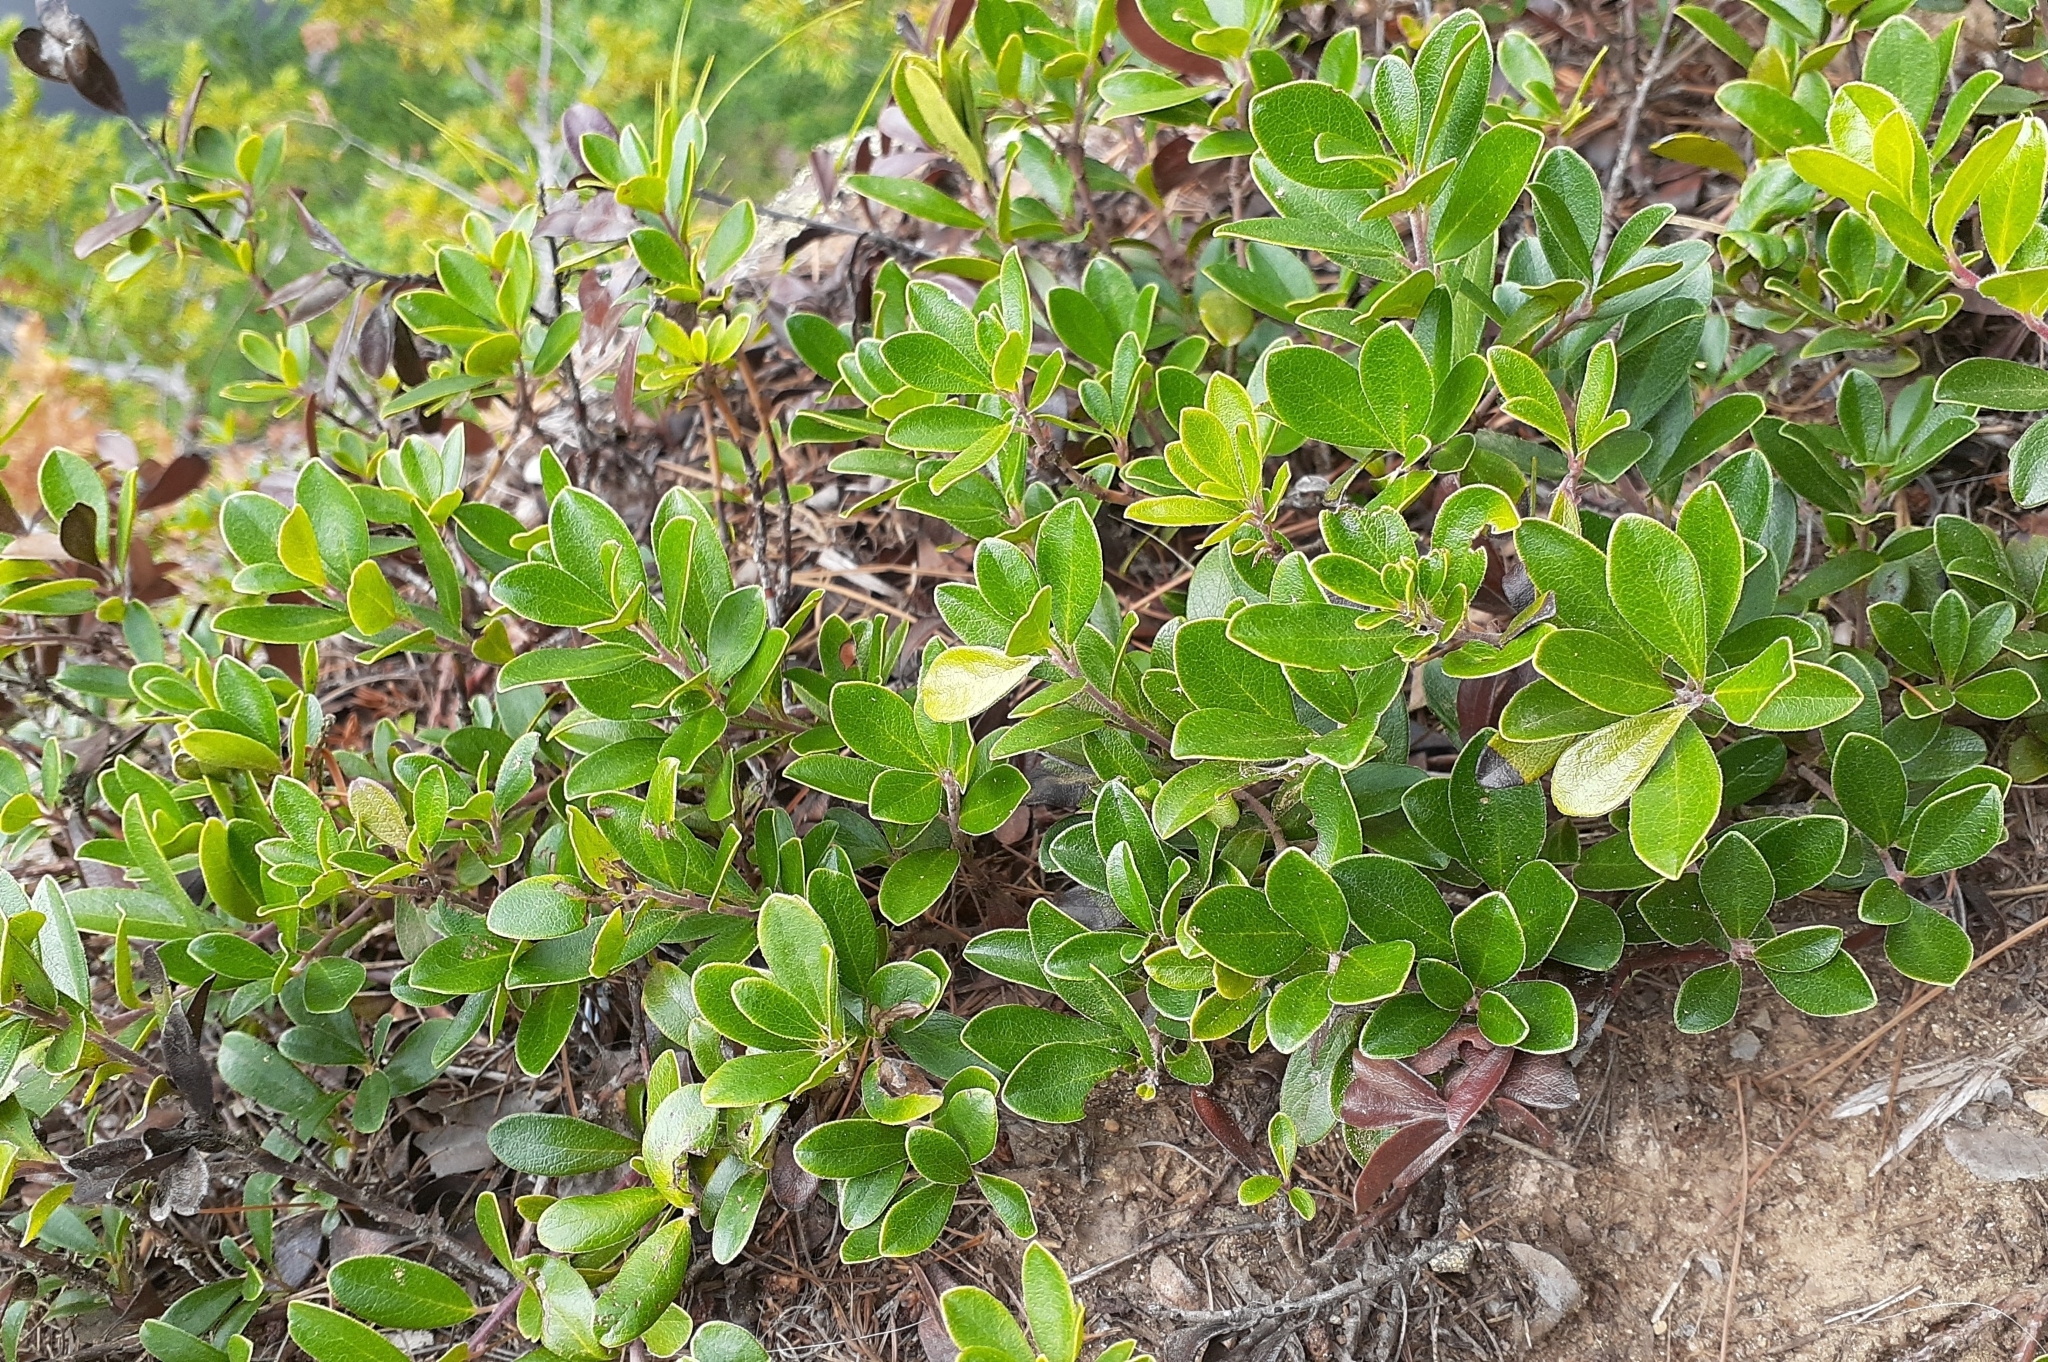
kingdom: Plantae
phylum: Tracheophyta
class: Magnoliopsida
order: Ericales
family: Ericaceae
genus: Arctostaphylos
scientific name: Arctostaphylos uva-ursi
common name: Bearberry
